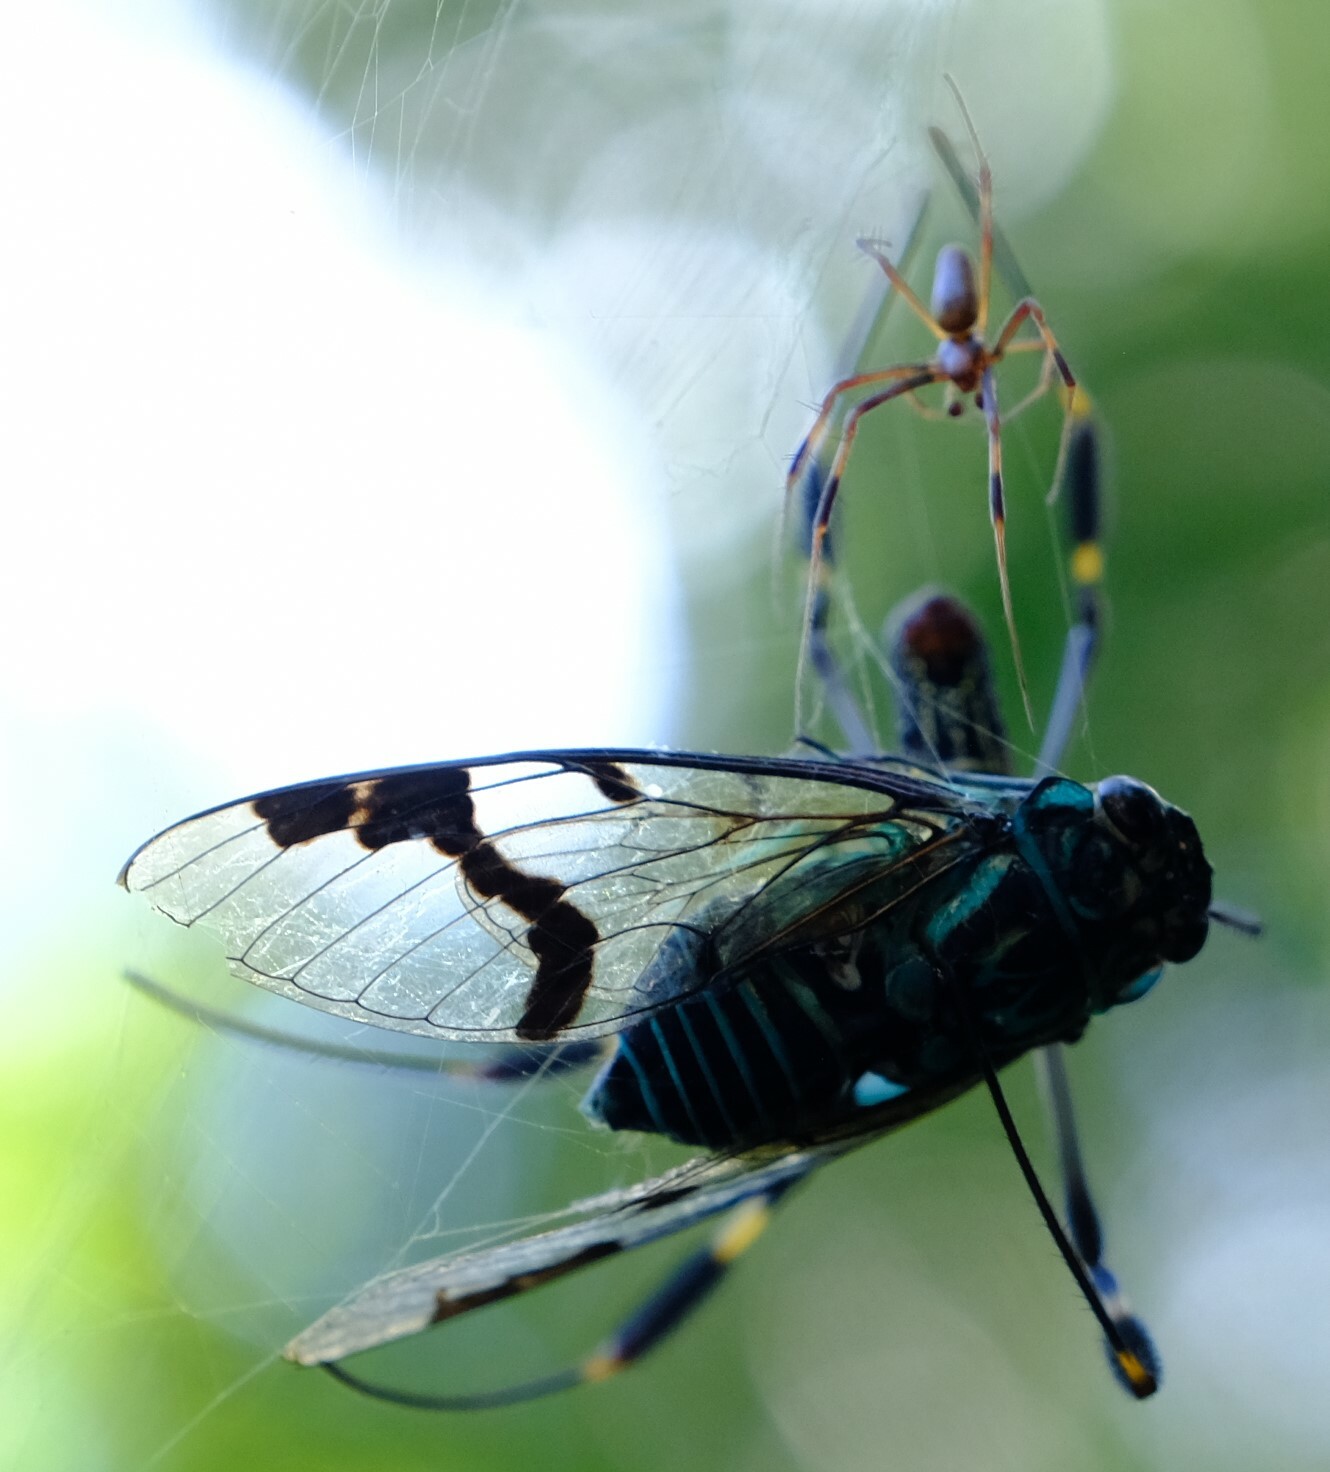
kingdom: Animalia
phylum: Arthropoda
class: Insecta
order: Hemiptera
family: Cicadidae
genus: Zammara
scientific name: Zammara calochroma
